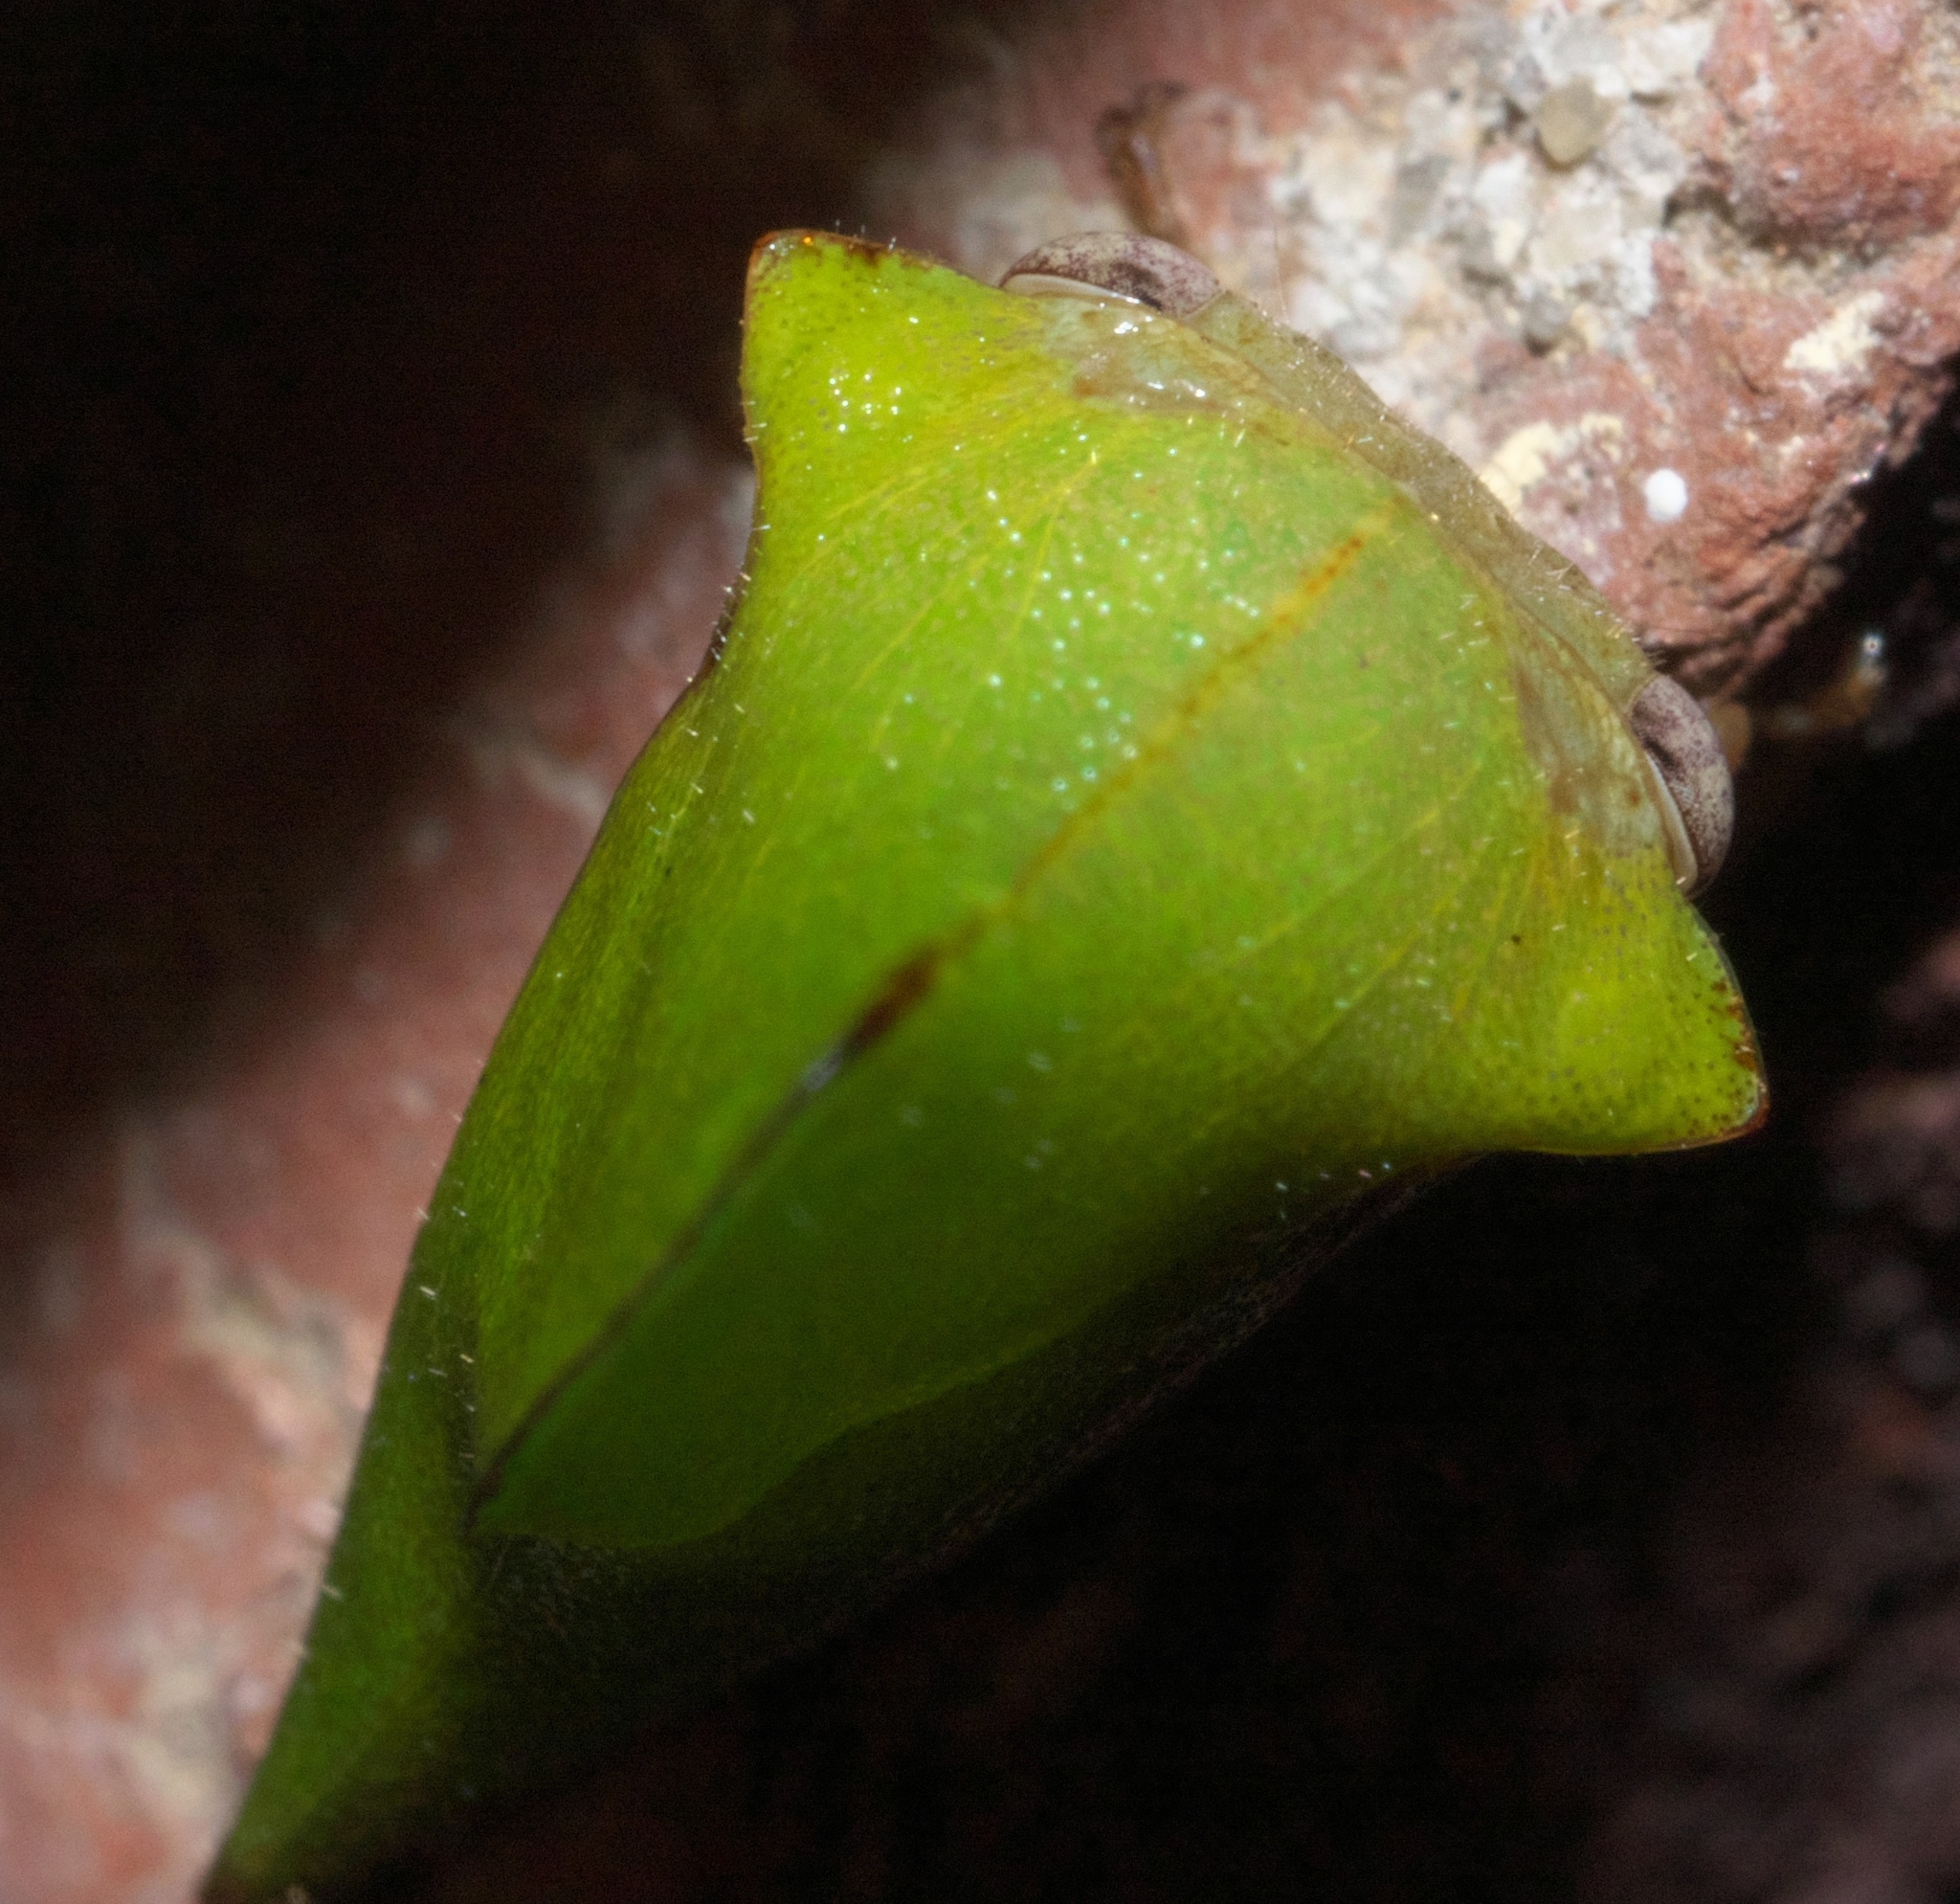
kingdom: Animalia
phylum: Arthropoda
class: Insecta
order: Hemiptera
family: Membracidae
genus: Helonica
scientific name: Helonica excelsa
